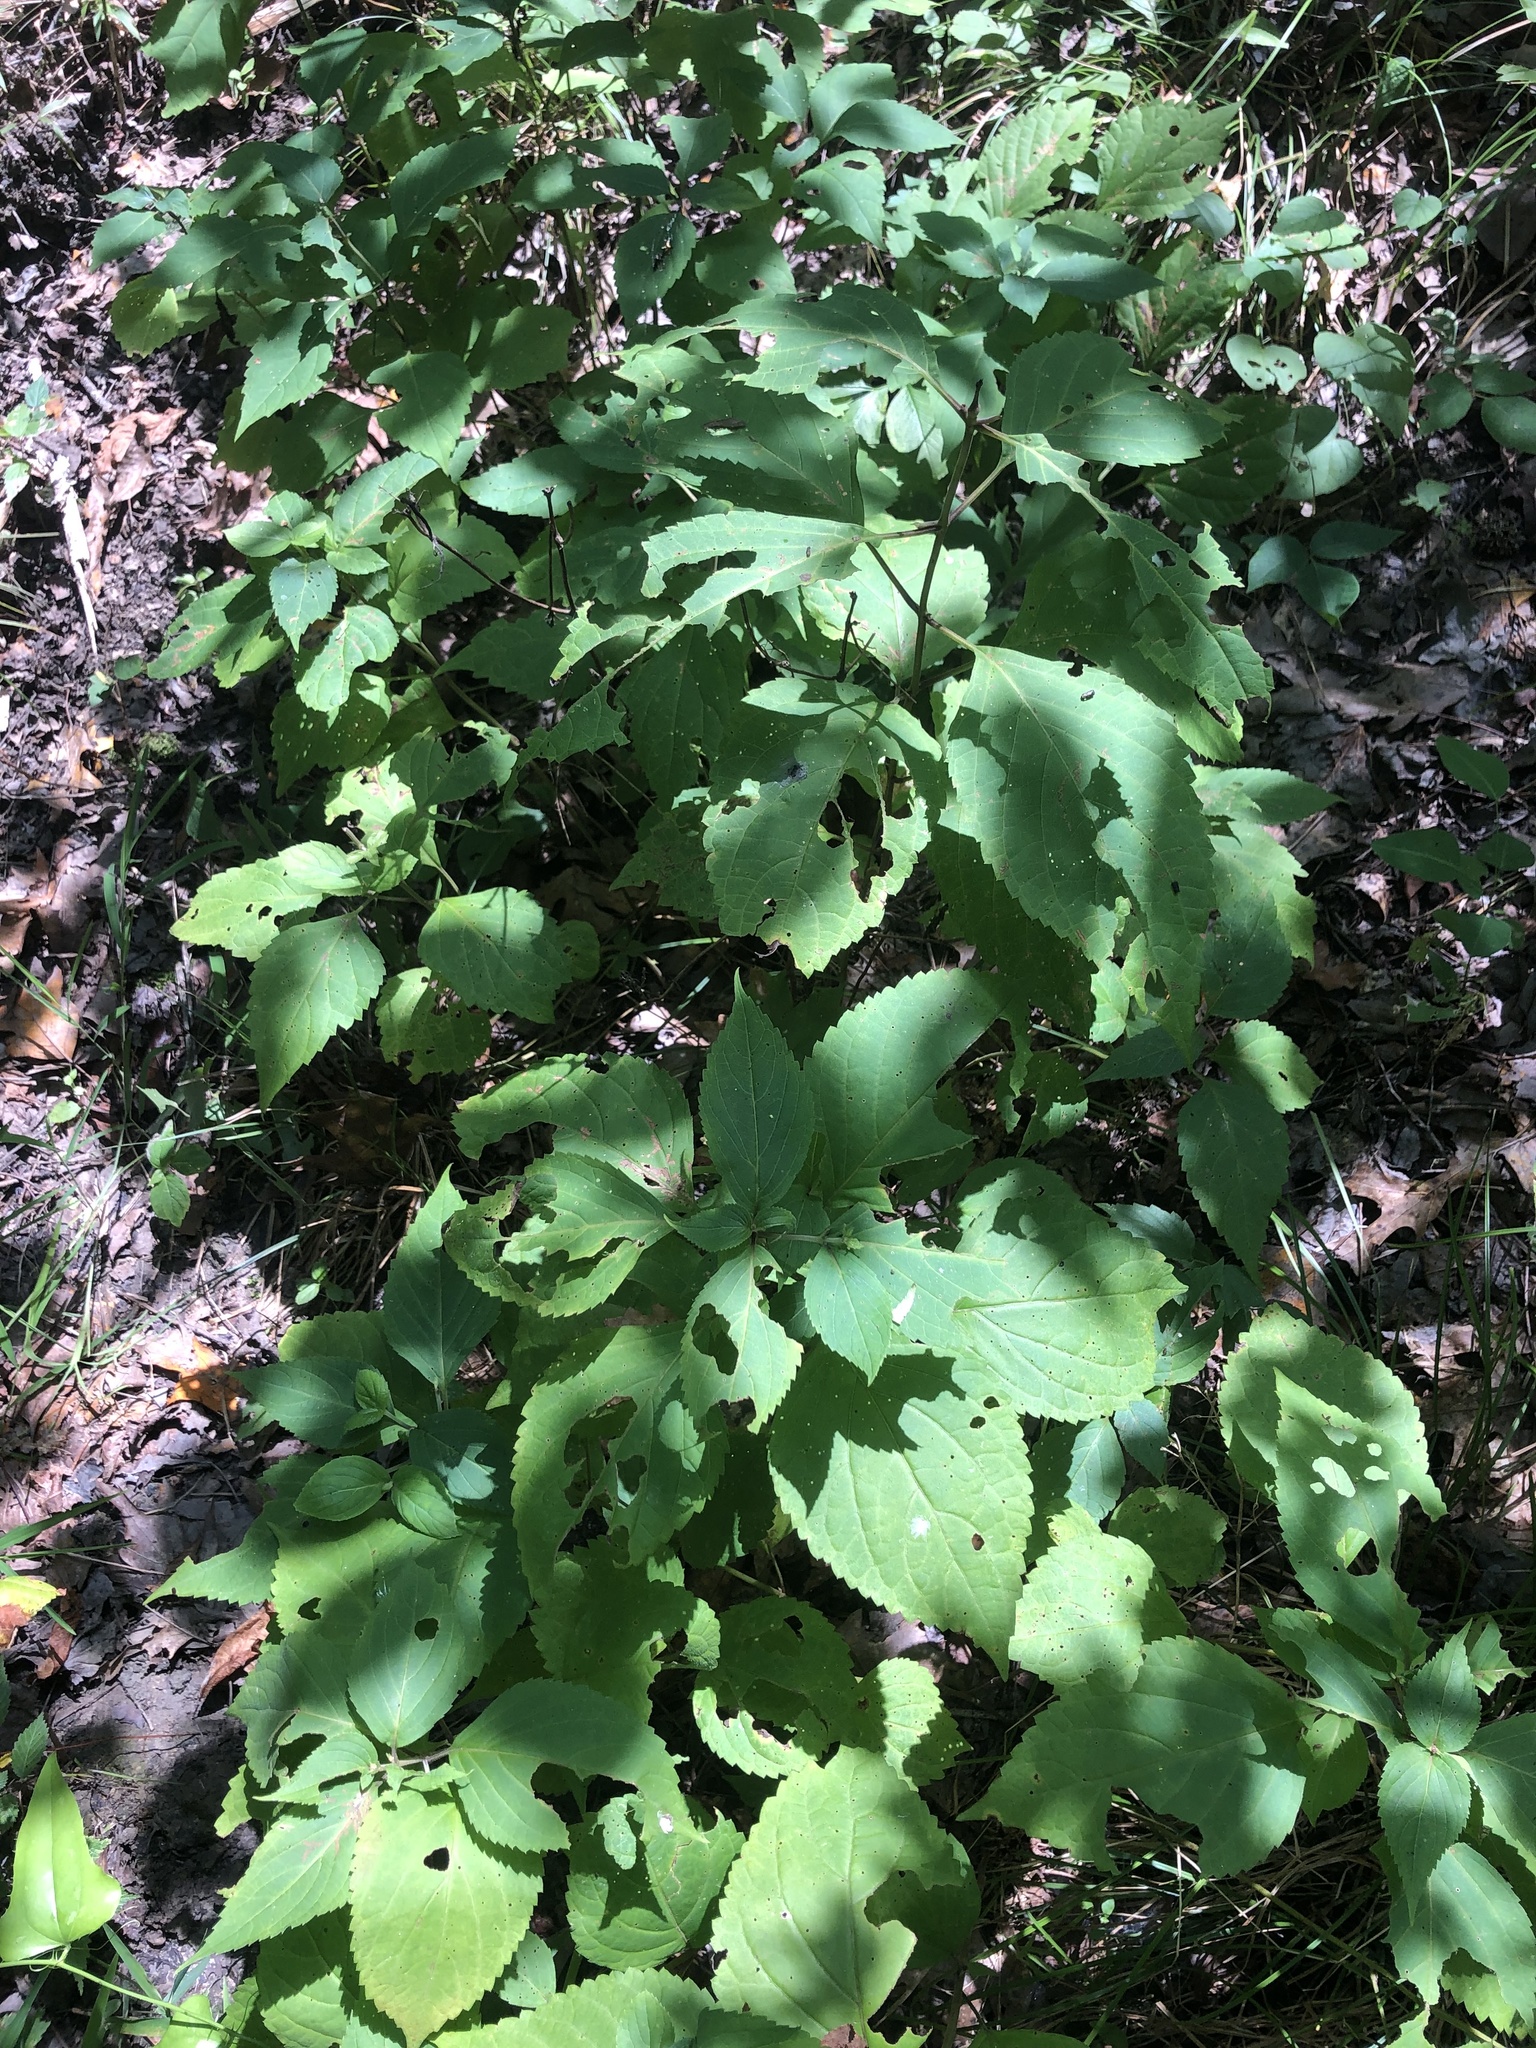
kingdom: Plantae
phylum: Tracheophyta
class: Magnoliopsida
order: Lamiales
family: Lamiaceae
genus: Collinsonia
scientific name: Collinsonia canadensis
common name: Northern horsebalm
